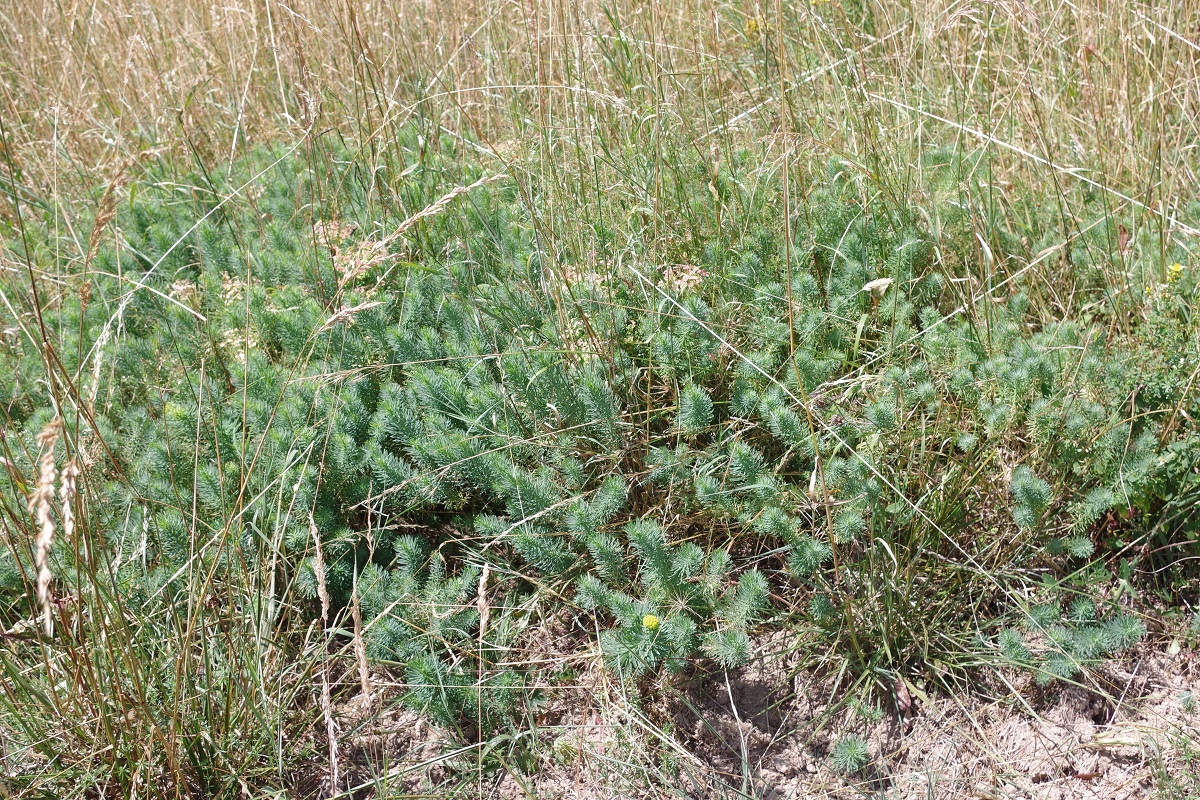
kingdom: Plantae
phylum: Tracheophyta
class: Magnoliopsida
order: Malpighiales
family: Euphorbiaceae
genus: Euphorbia
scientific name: Euphorbia cyparissias
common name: Cypress spurge
